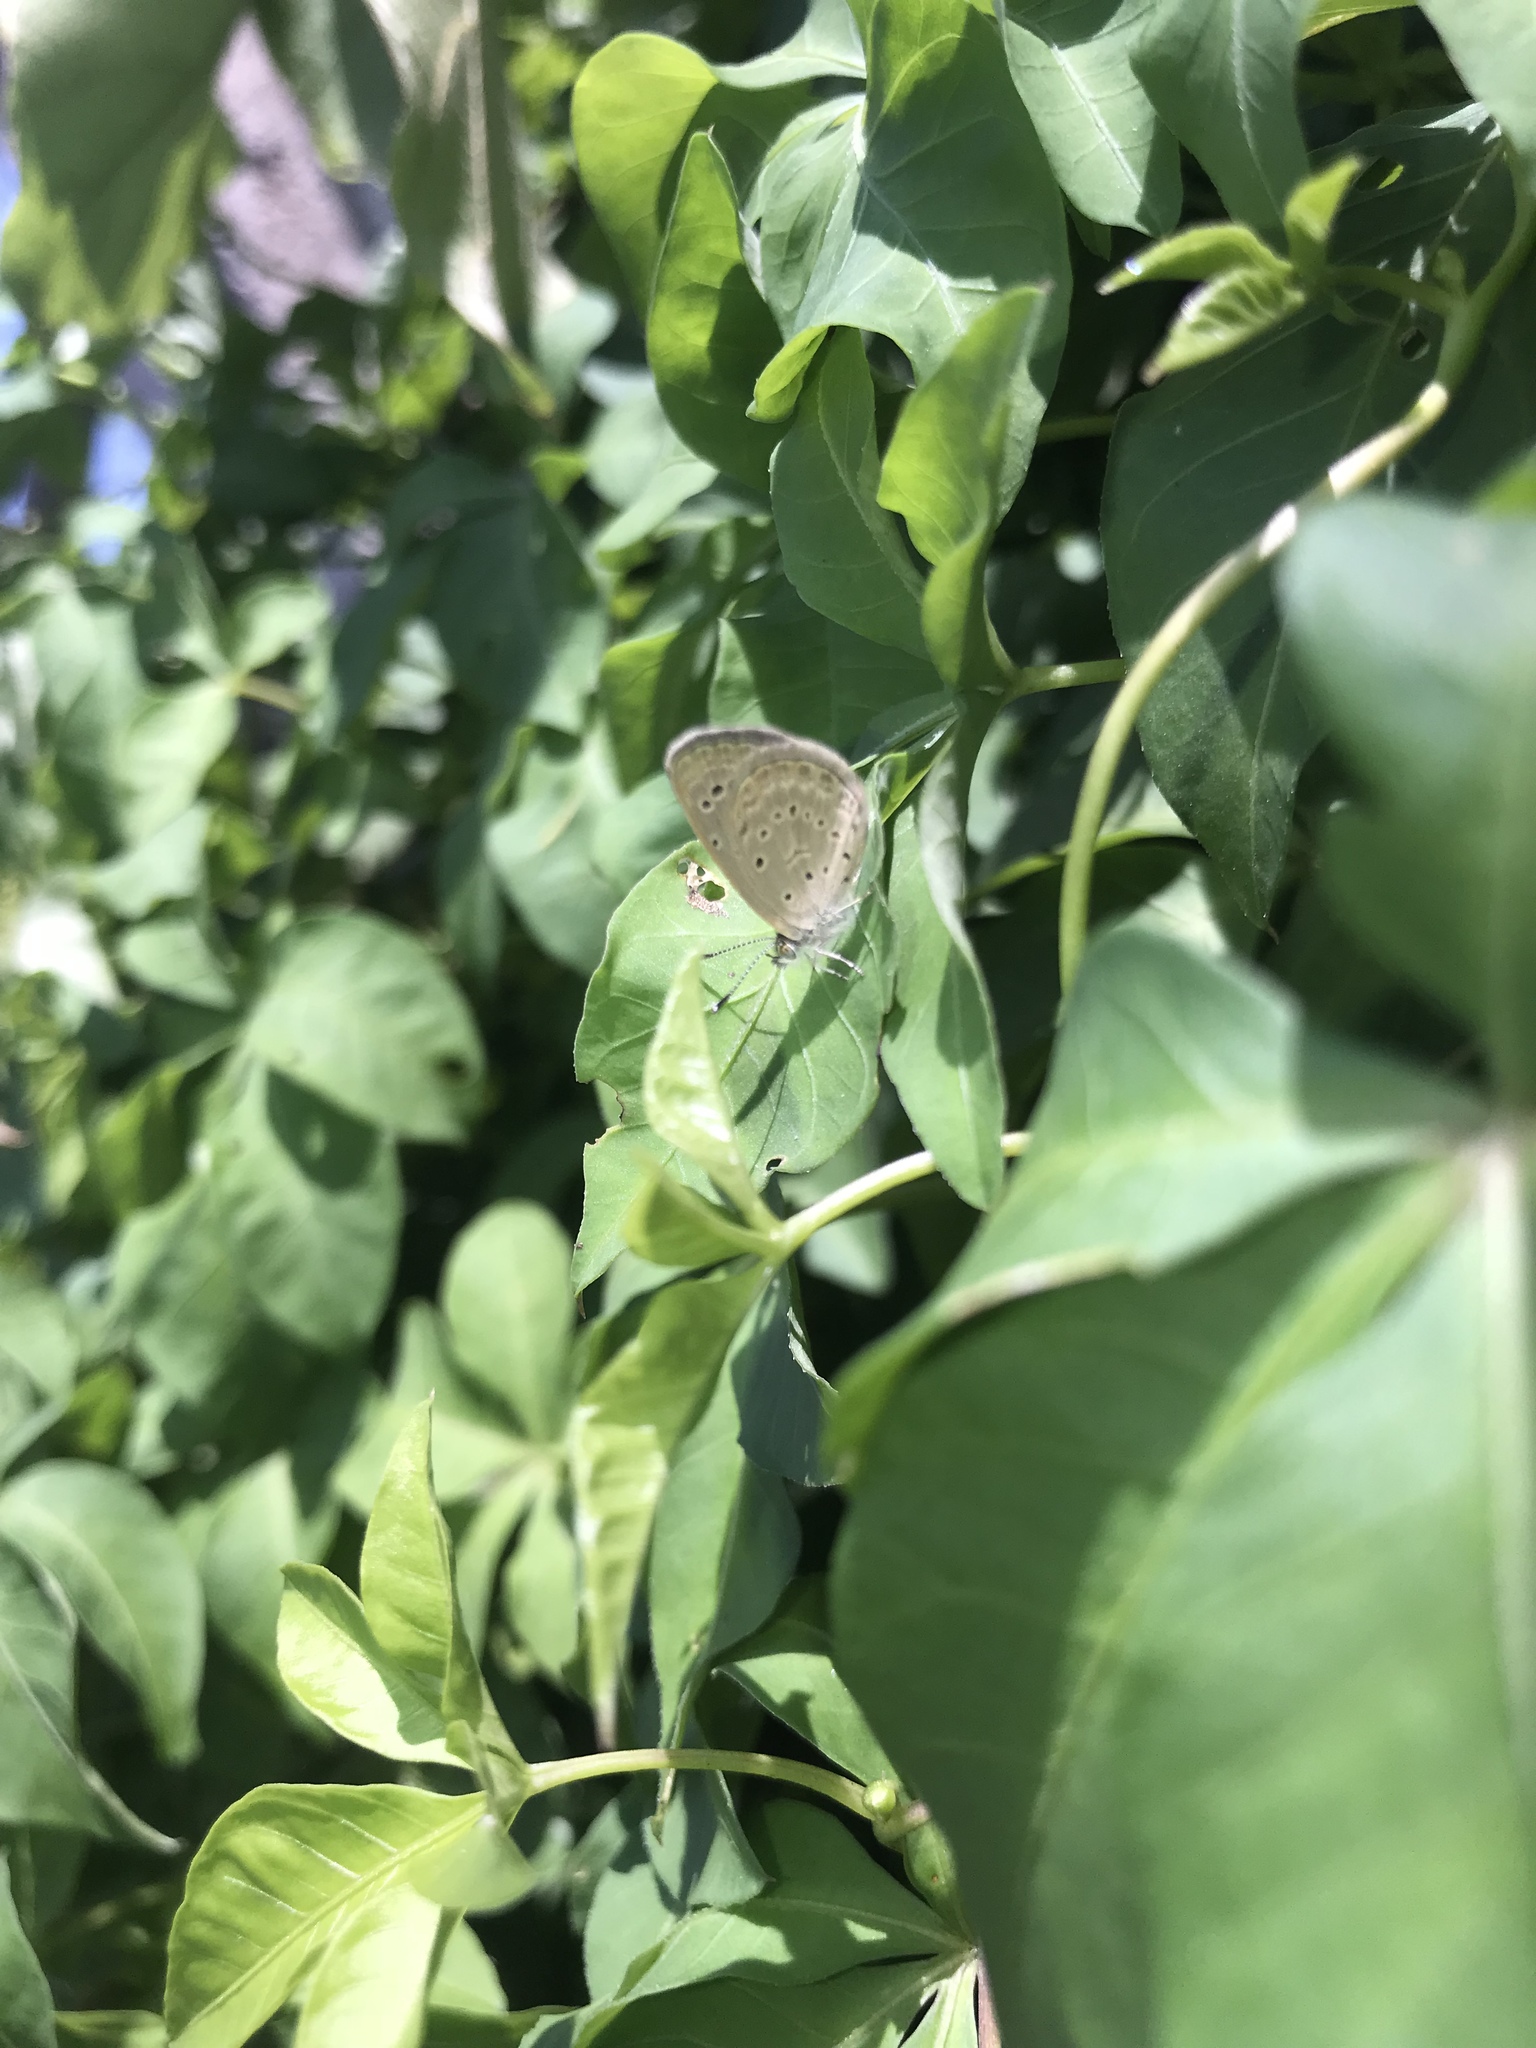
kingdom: Animalia
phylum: Arthropoda
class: Insecta
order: Lepidoptera
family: Lycaenidae
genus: Zizeeria
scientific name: Zizeeria karsandra
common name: Dark grass blue
